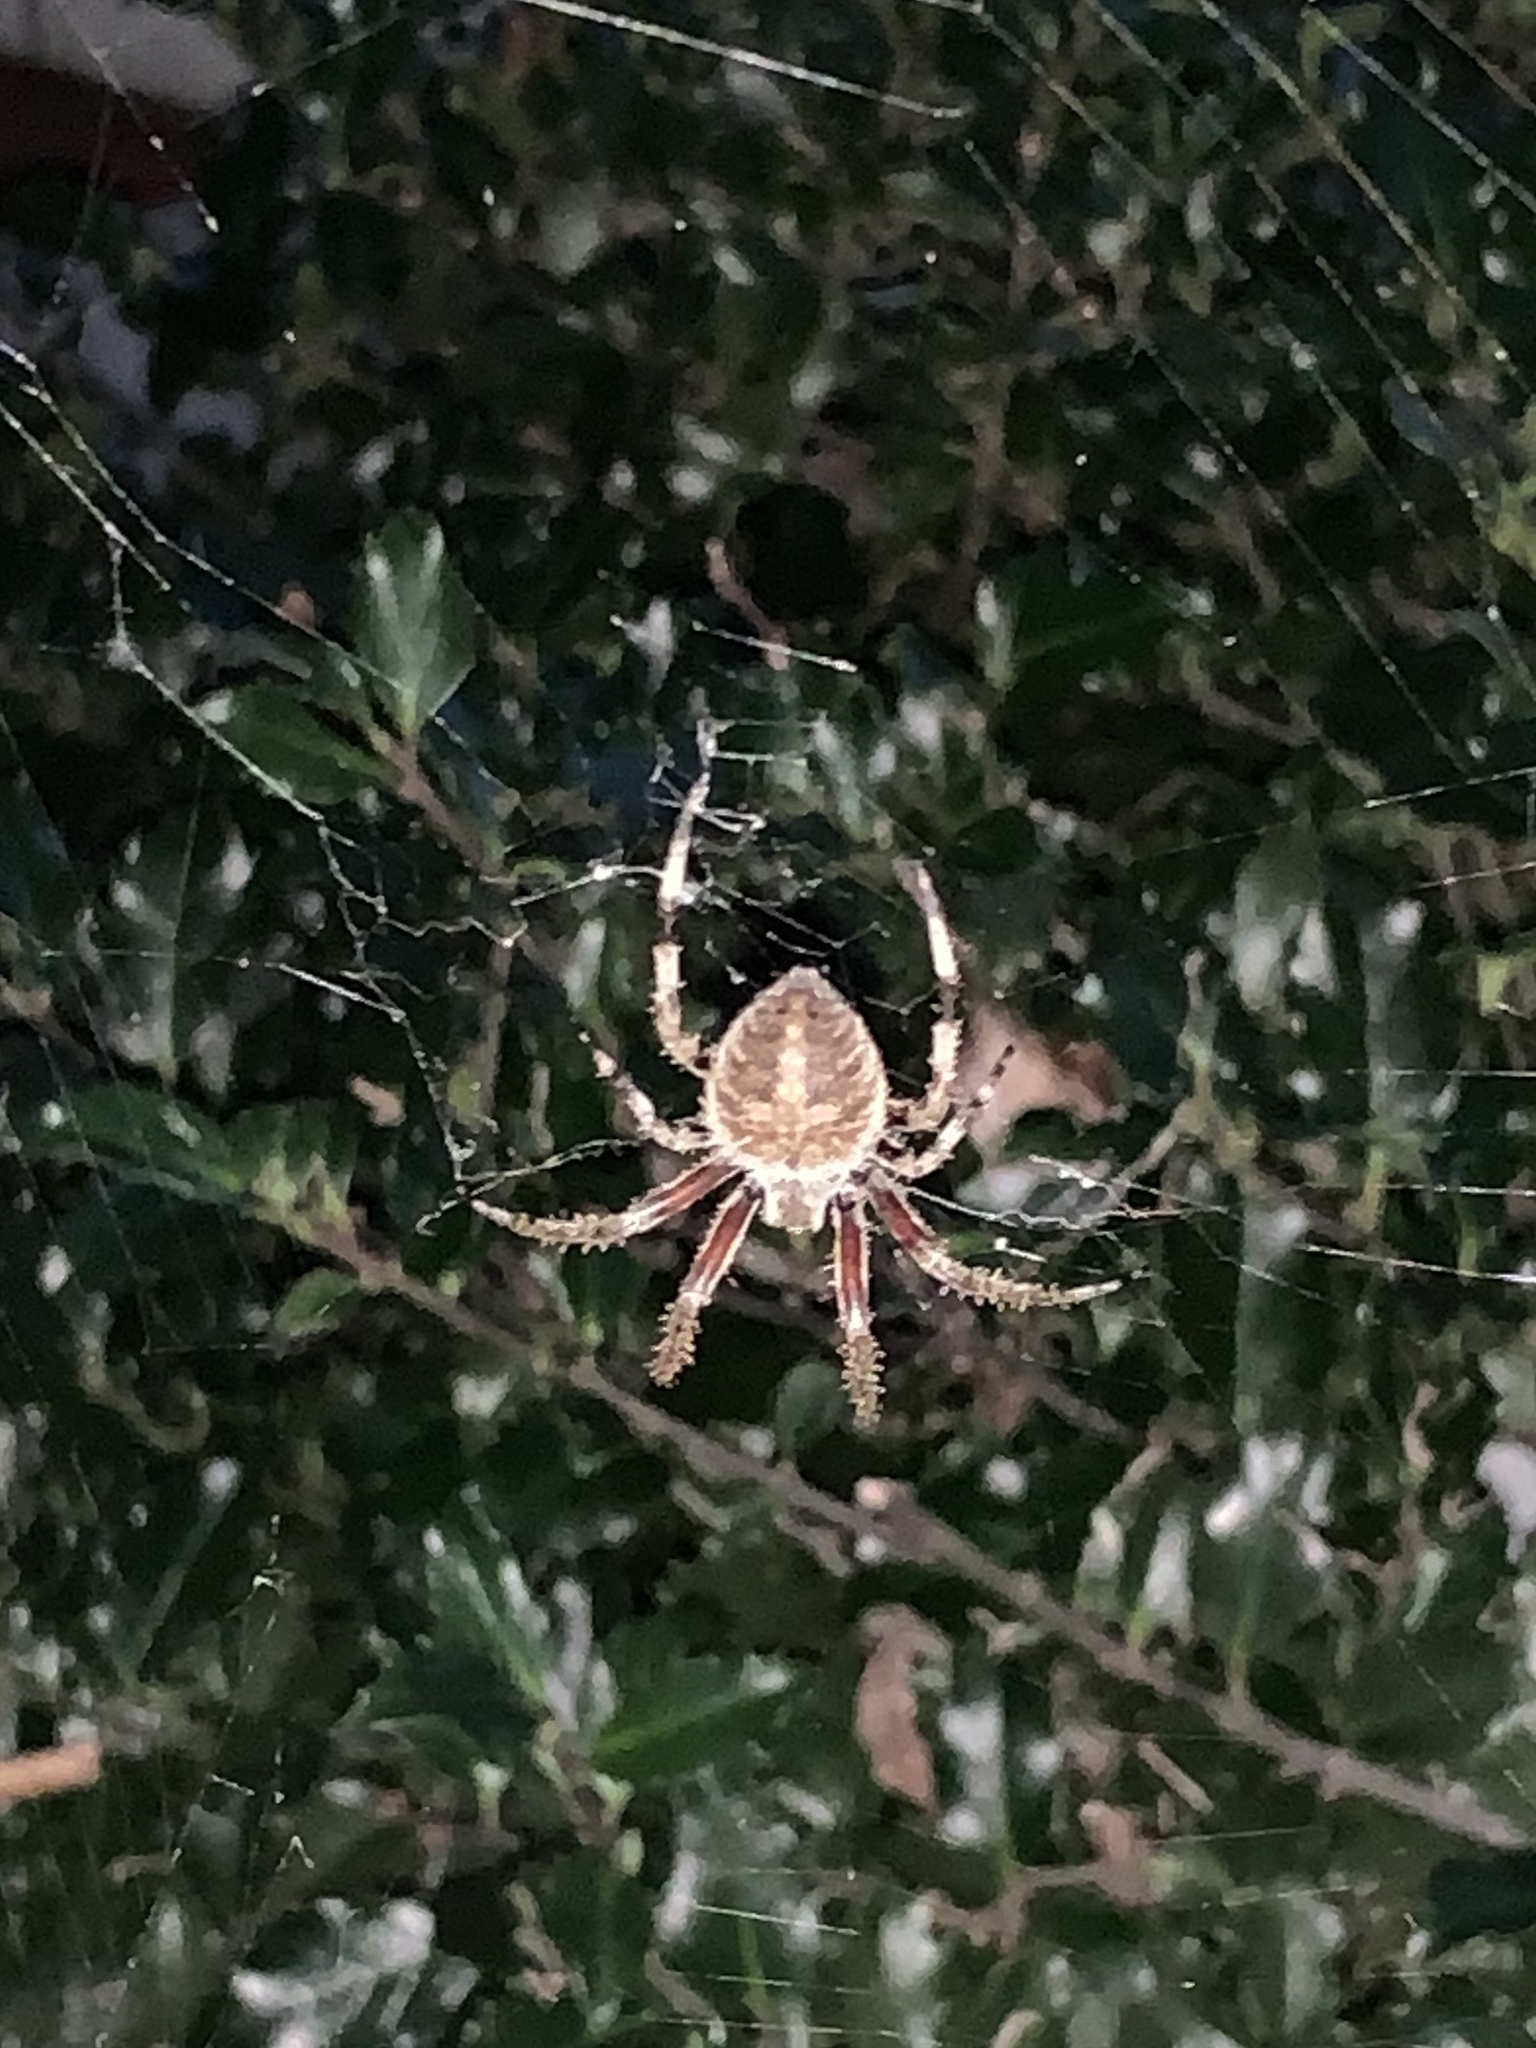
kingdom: Animalia
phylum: Arthropoda
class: Arachnida
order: Araneae
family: Araneidae
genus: Neoscona
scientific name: Neoscona crucifera
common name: Spotted orbweaver
